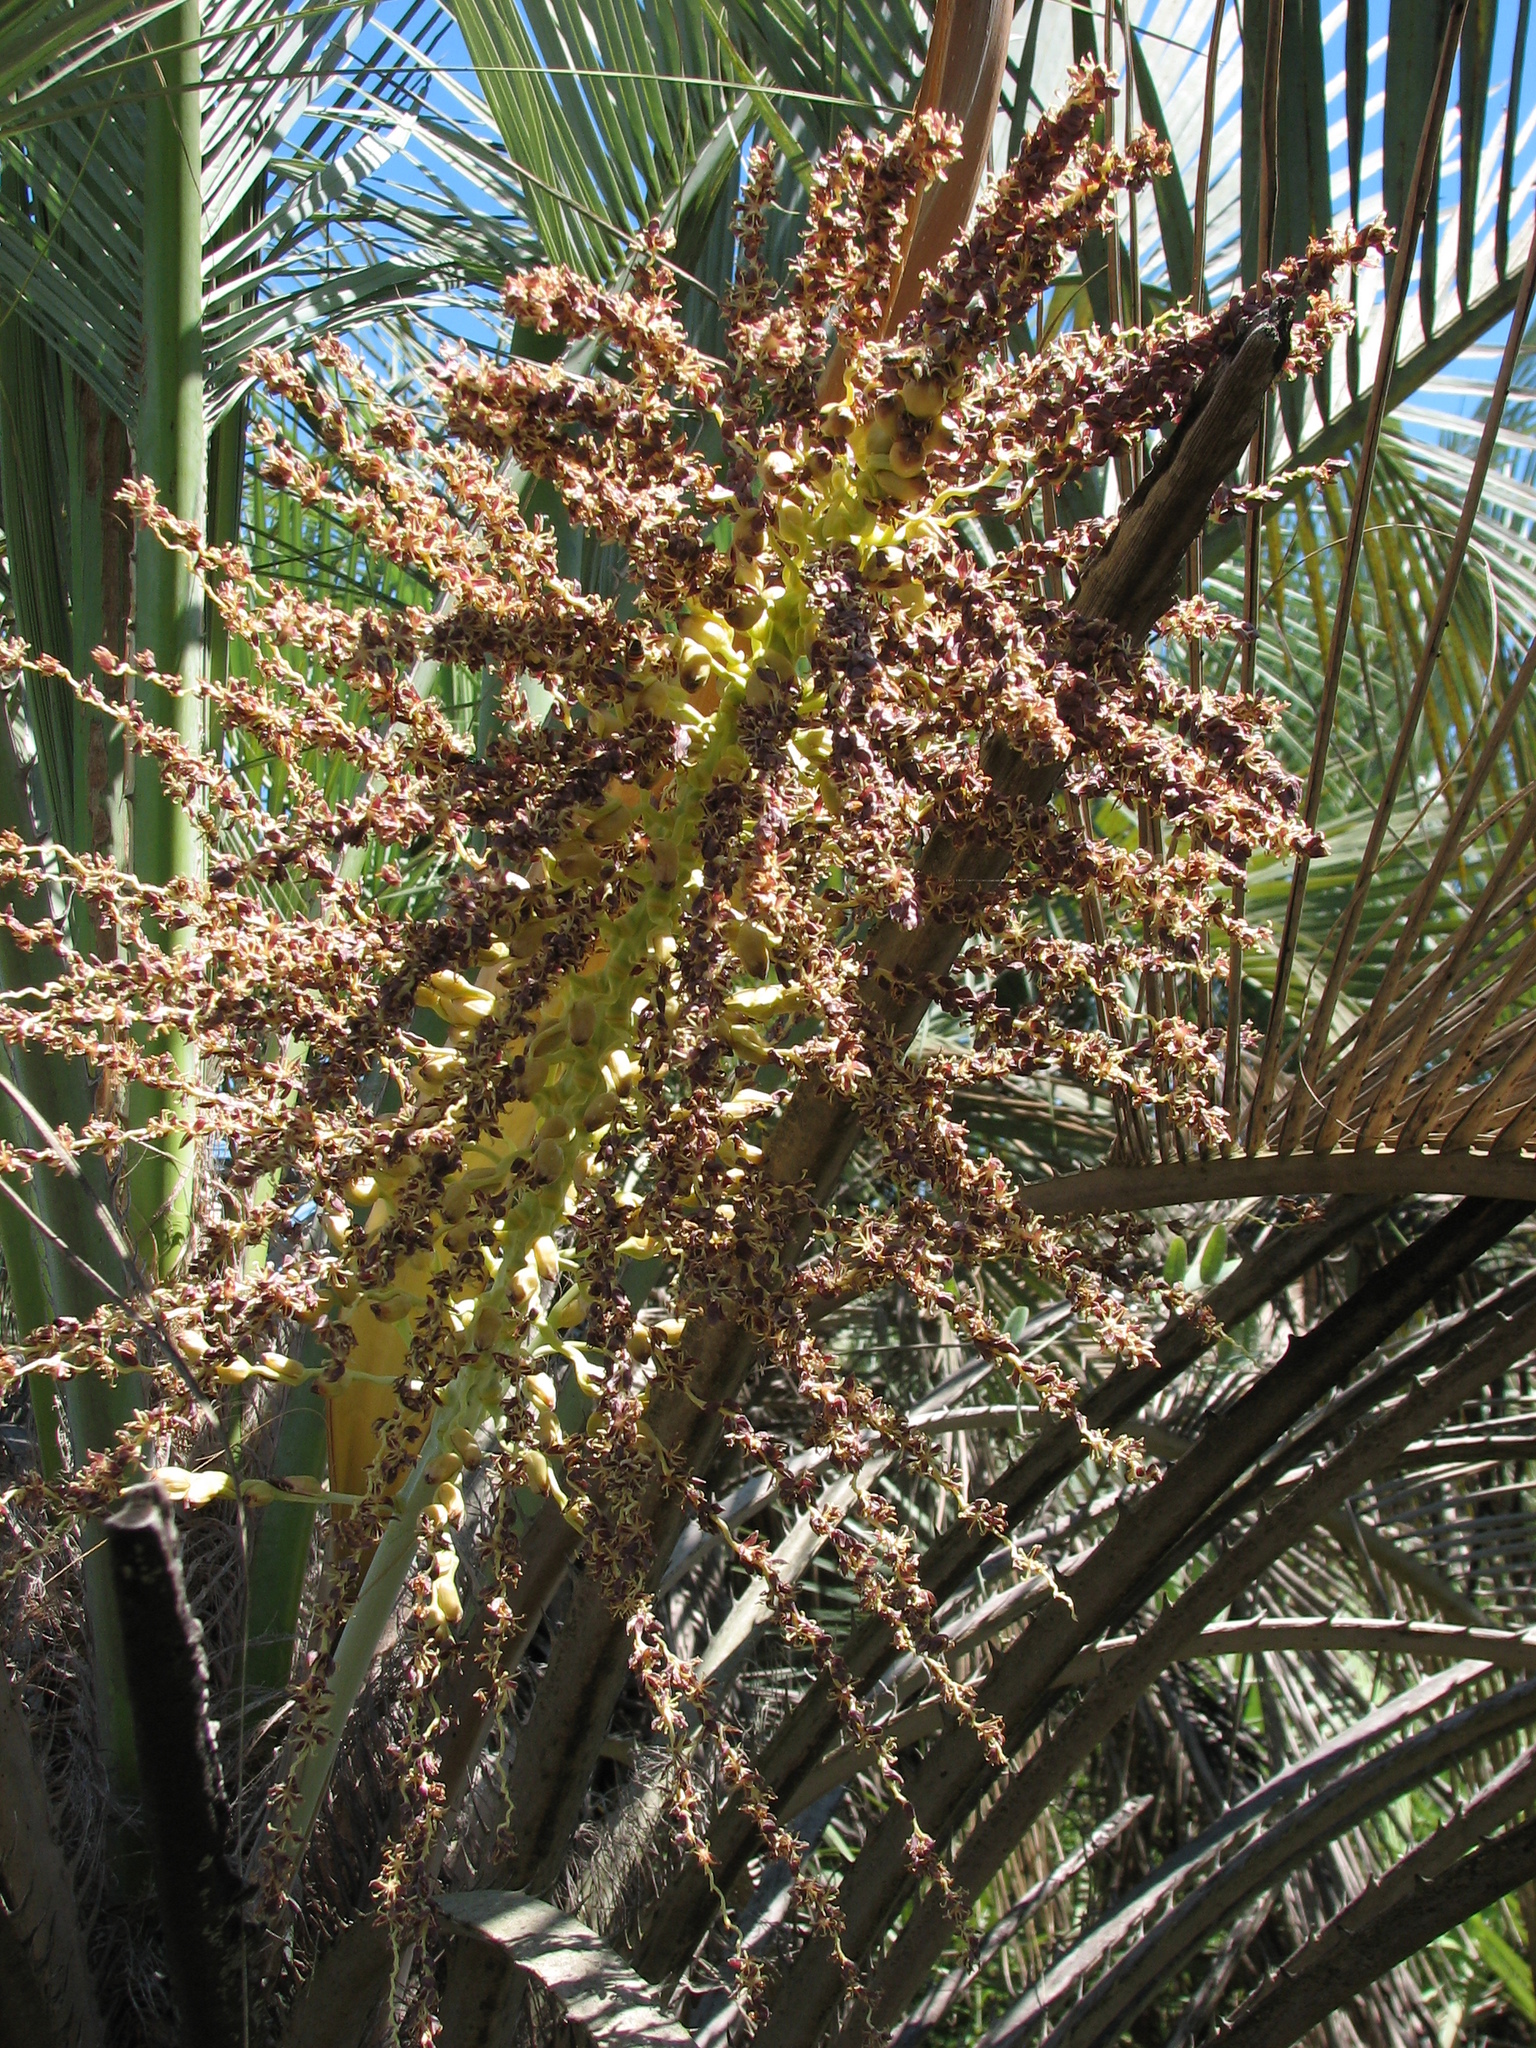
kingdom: Plantae
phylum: Tracheophyta
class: Liliopsida
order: Arecales
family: Arecaceae
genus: Butia
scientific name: Butia yatay
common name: Yatay palm
